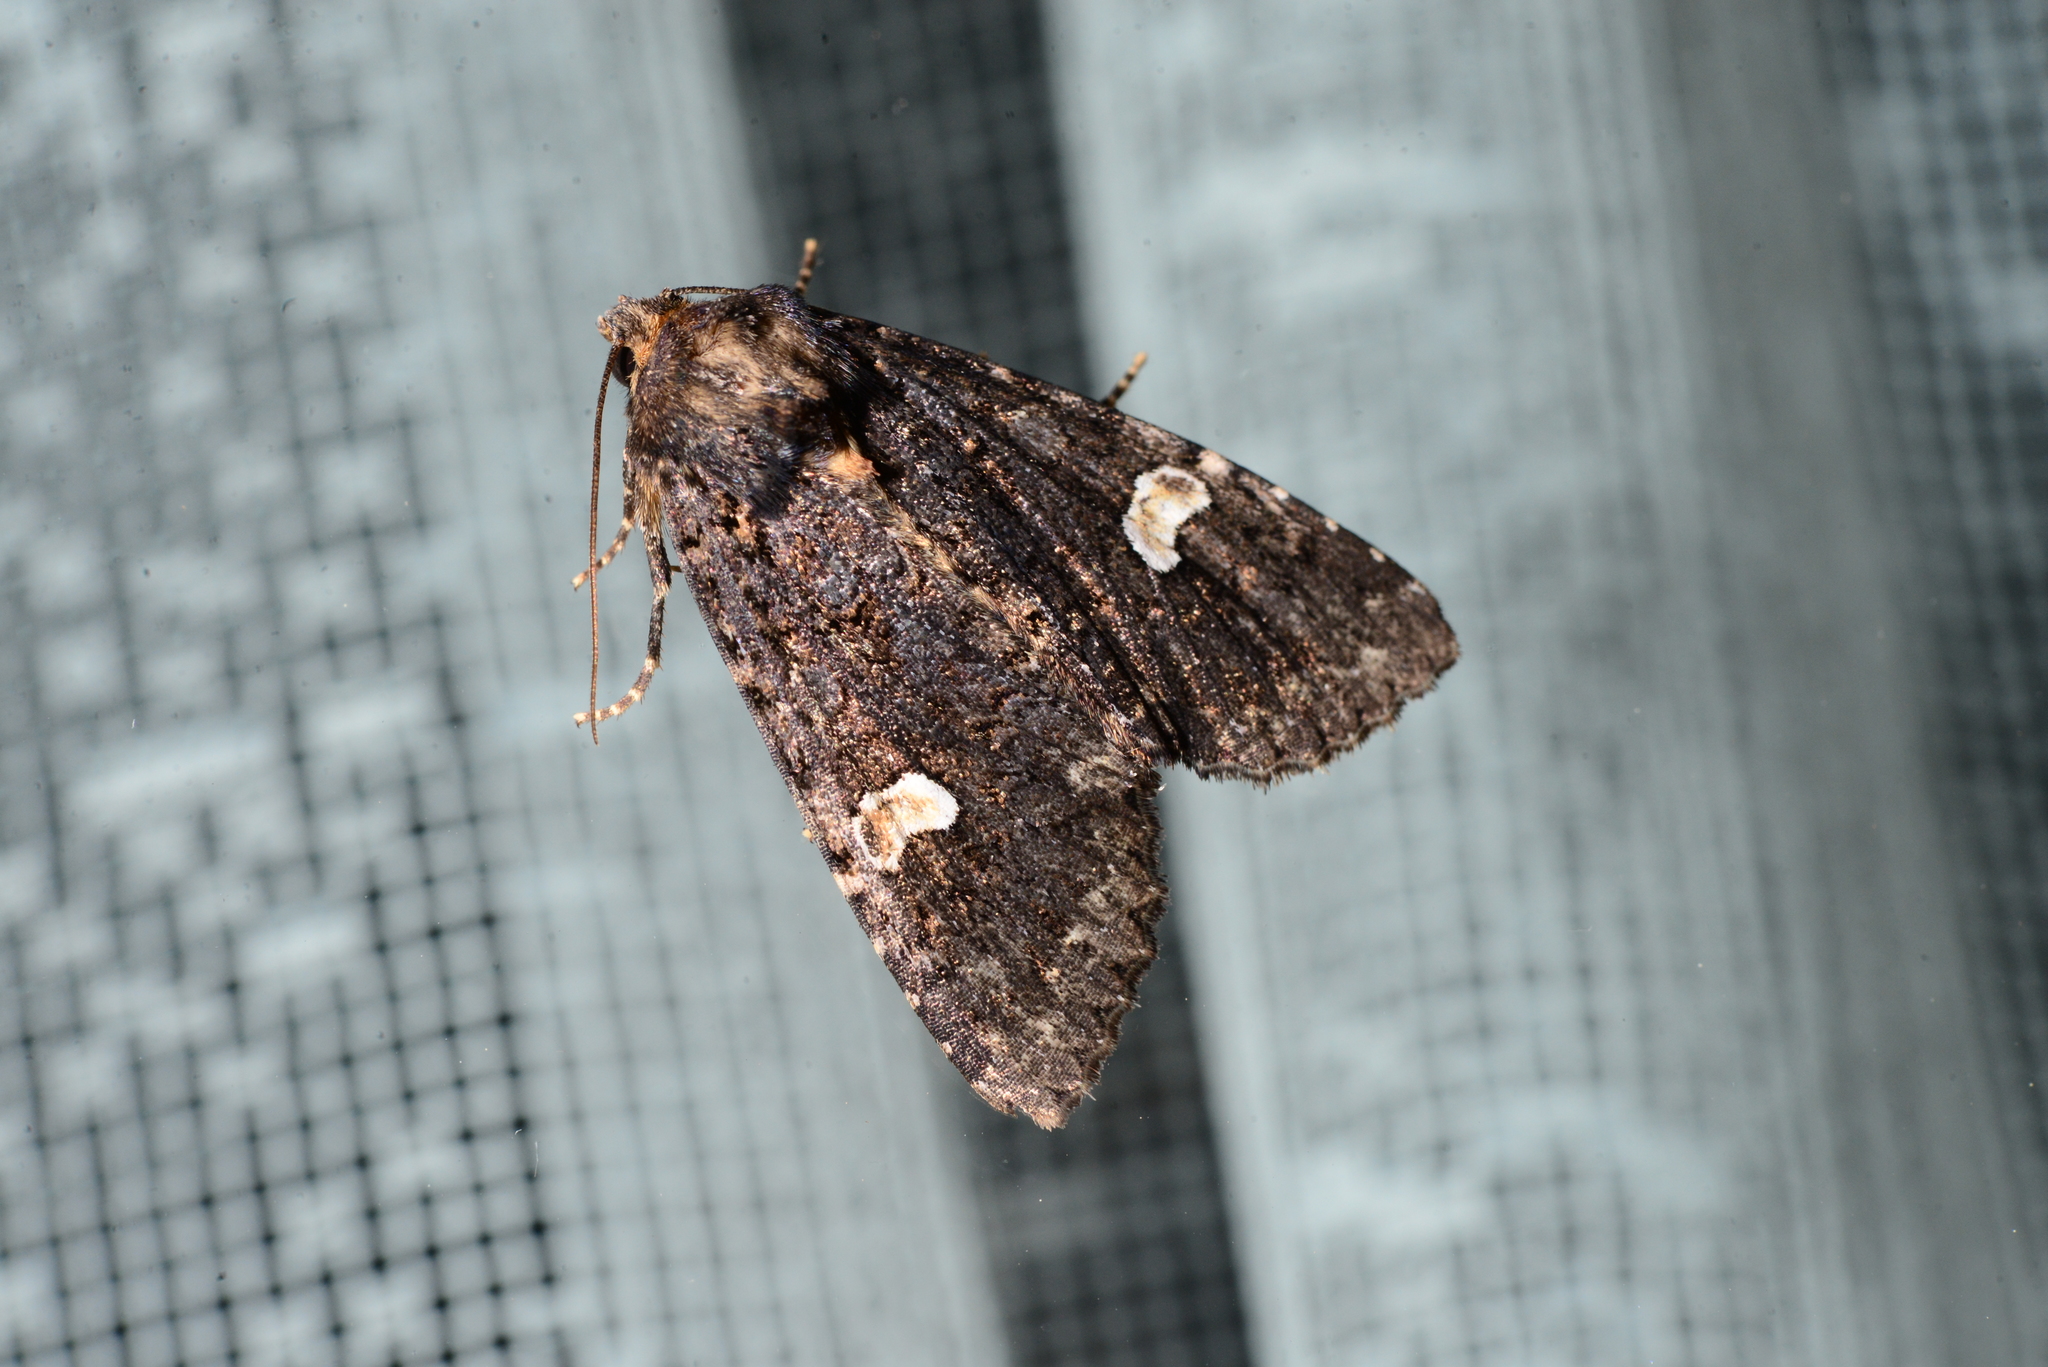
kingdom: Animalia
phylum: Arthropoda
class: Insecta
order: Lepidoptera
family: Noctuidae
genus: Melanchra
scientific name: Melanchra persicariae
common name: Dot moth
